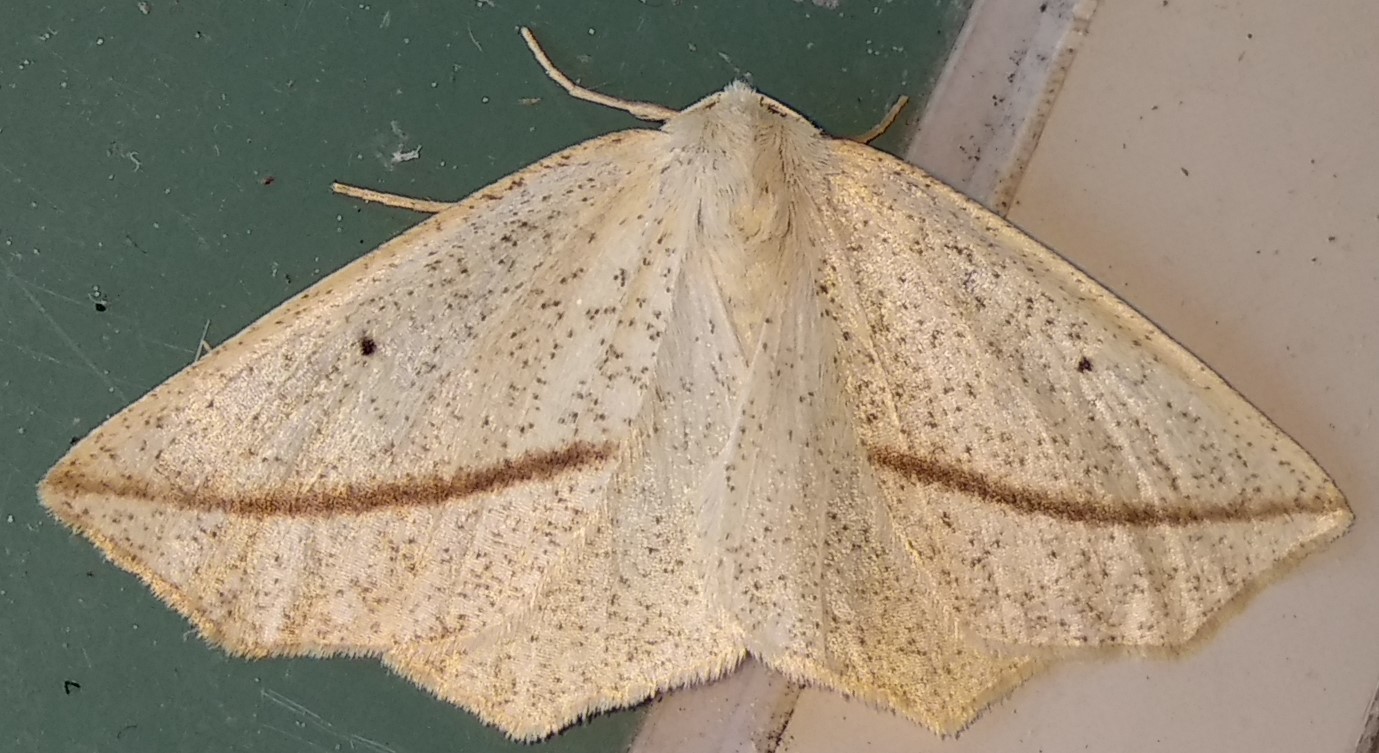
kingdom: Animalia
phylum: Arthropoda
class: Insecta
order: Lepidoptera
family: Geometridae
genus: Tetracis
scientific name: Tetracis crocallata
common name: Yellow slant-line
